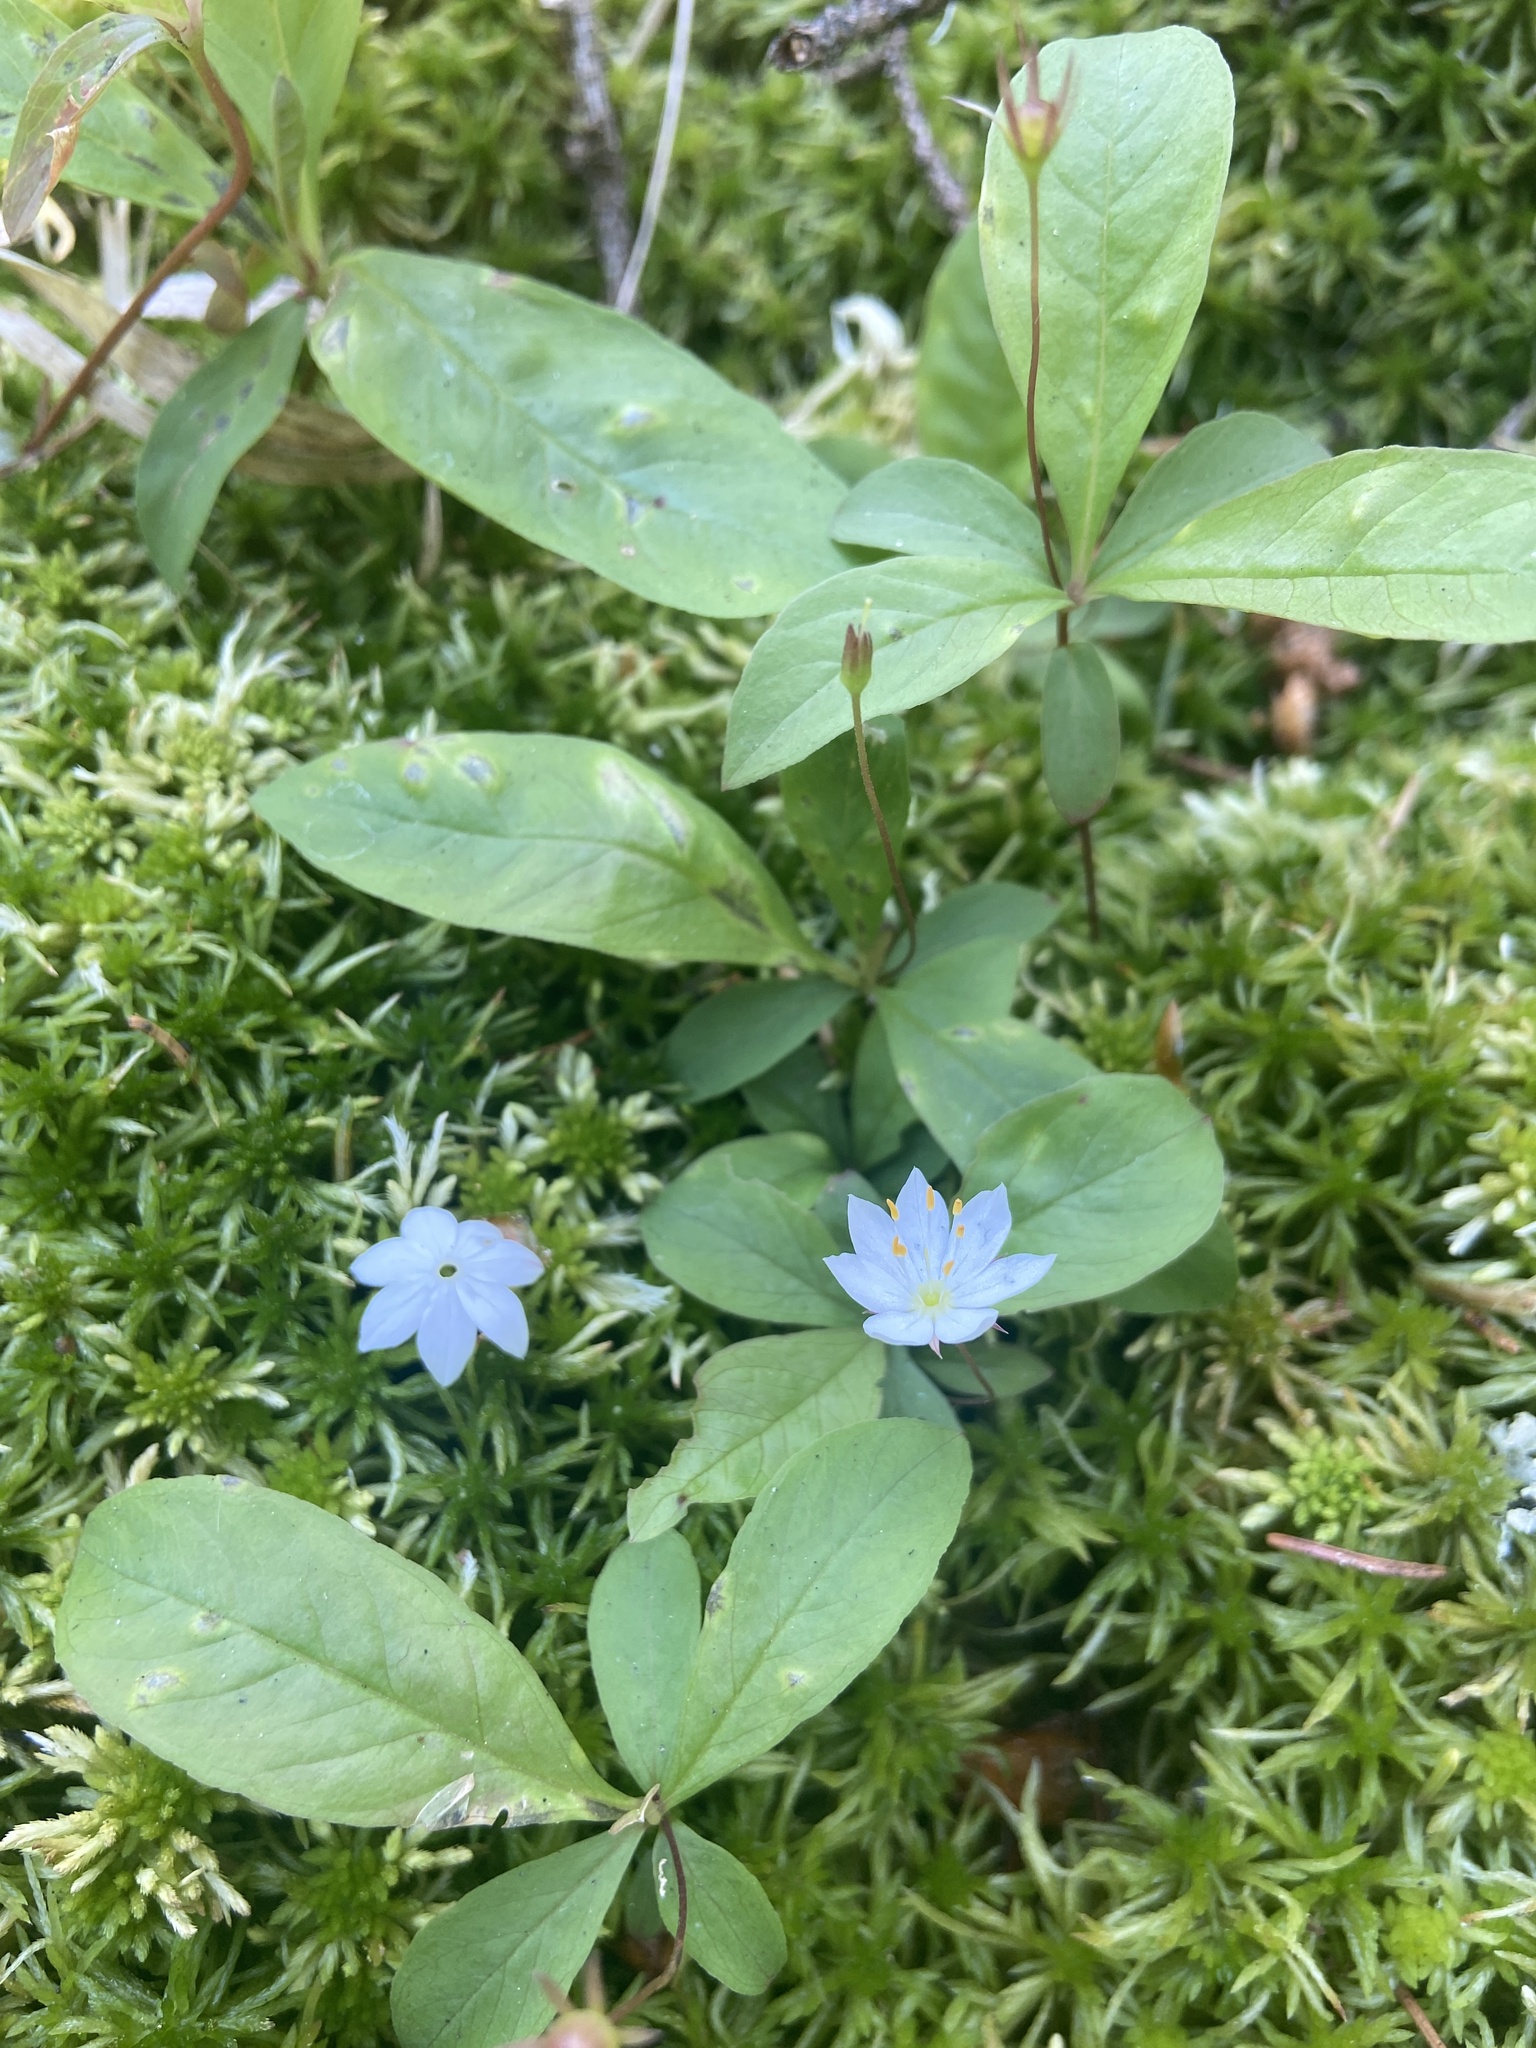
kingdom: Plantae
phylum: Tracheophyta
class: Magnoliopsida
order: Ericales
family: Primulaceae
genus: Lysimachia
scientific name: Lysimachia europaea
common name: Arctic starflower
